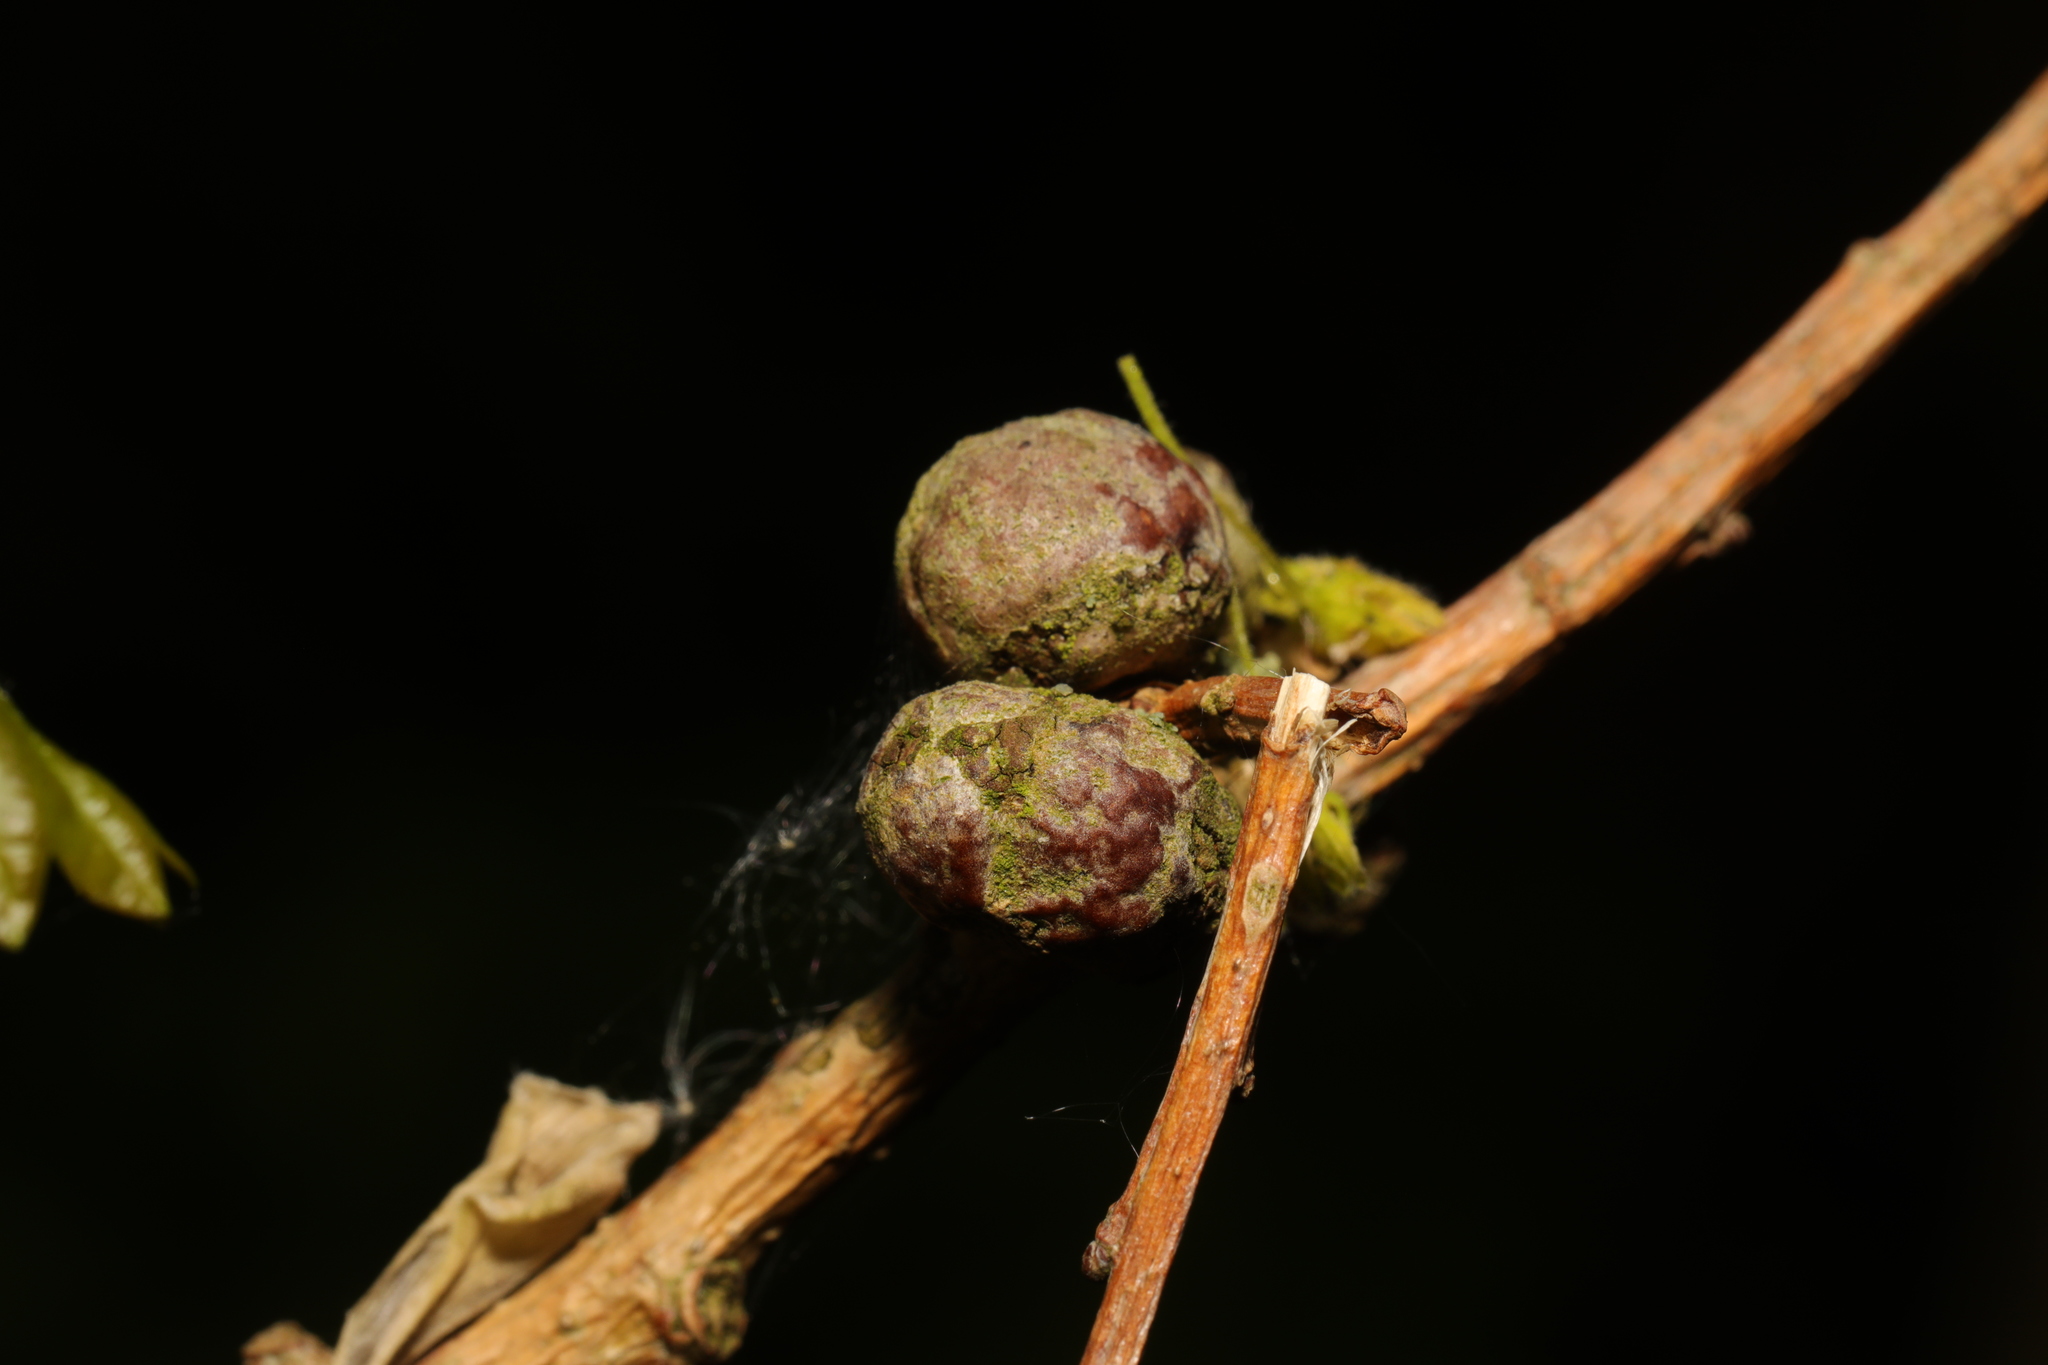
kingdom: Animalia
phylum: Arthropoda
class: Insecta
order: Hymenoptera
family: Cynipidae
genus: Andricus
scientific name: Andricus lignicolus
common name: Cola-nut gall
